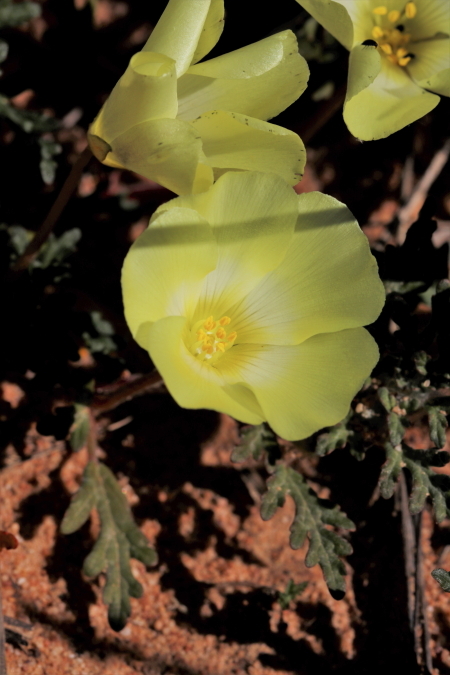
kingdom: Plantae
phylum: Tracheophyta
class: Magnoliopsida
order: Malvales
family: Neuradaceae
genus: Grielum
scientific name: Grielum humifusum
